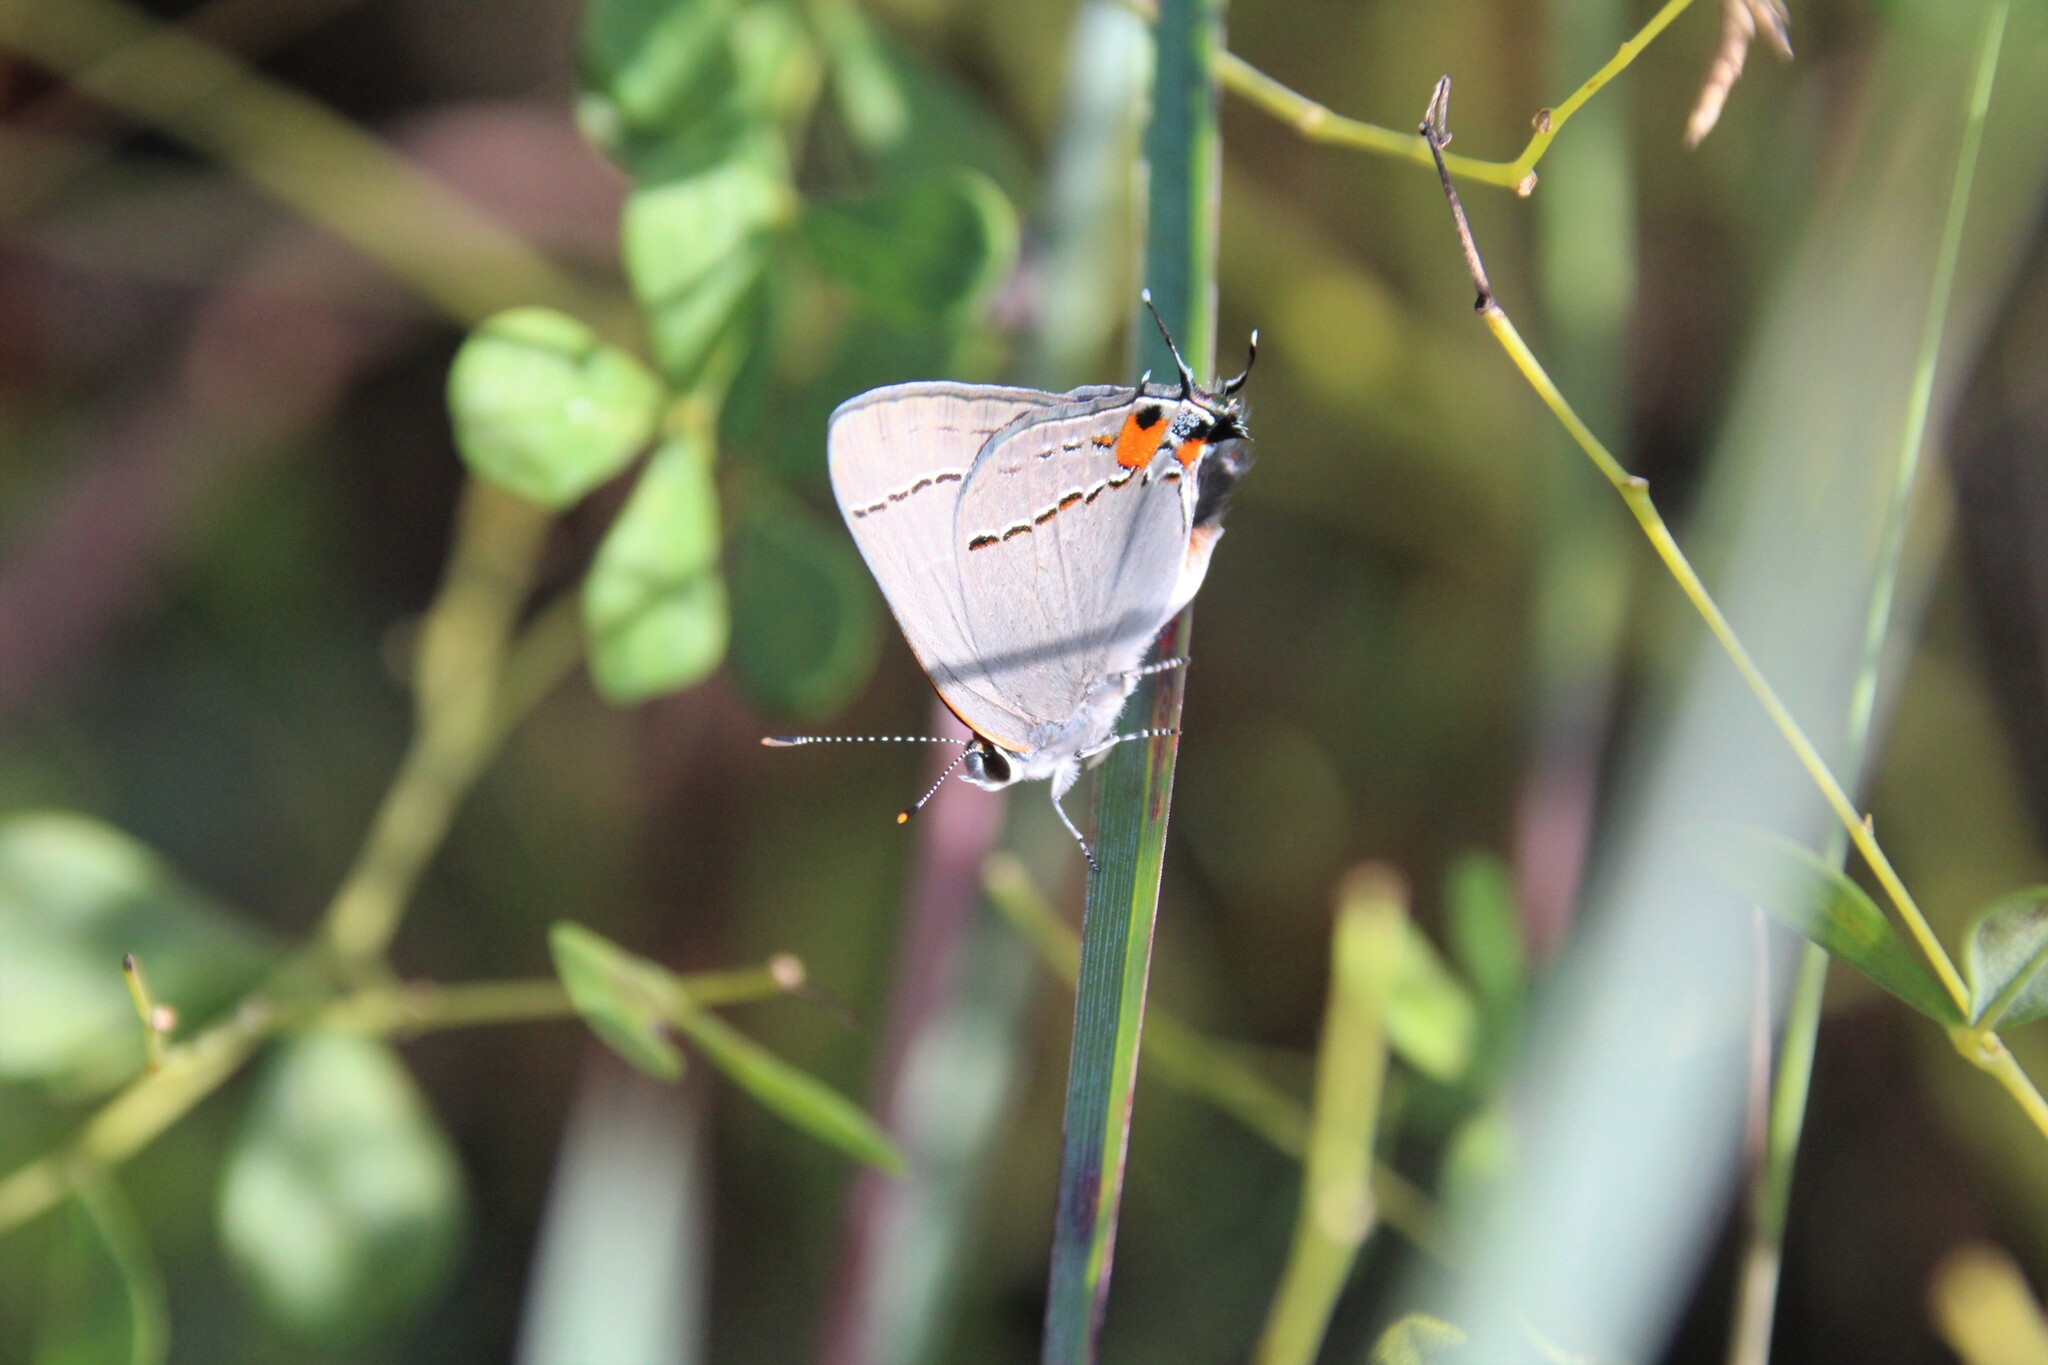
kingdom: Animalia
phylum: Arthropoda
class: Insecta
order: Lepidoptera
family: Lycaenidae
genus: Strymon
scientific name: Strymon melinus
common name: Gray hairstreak
